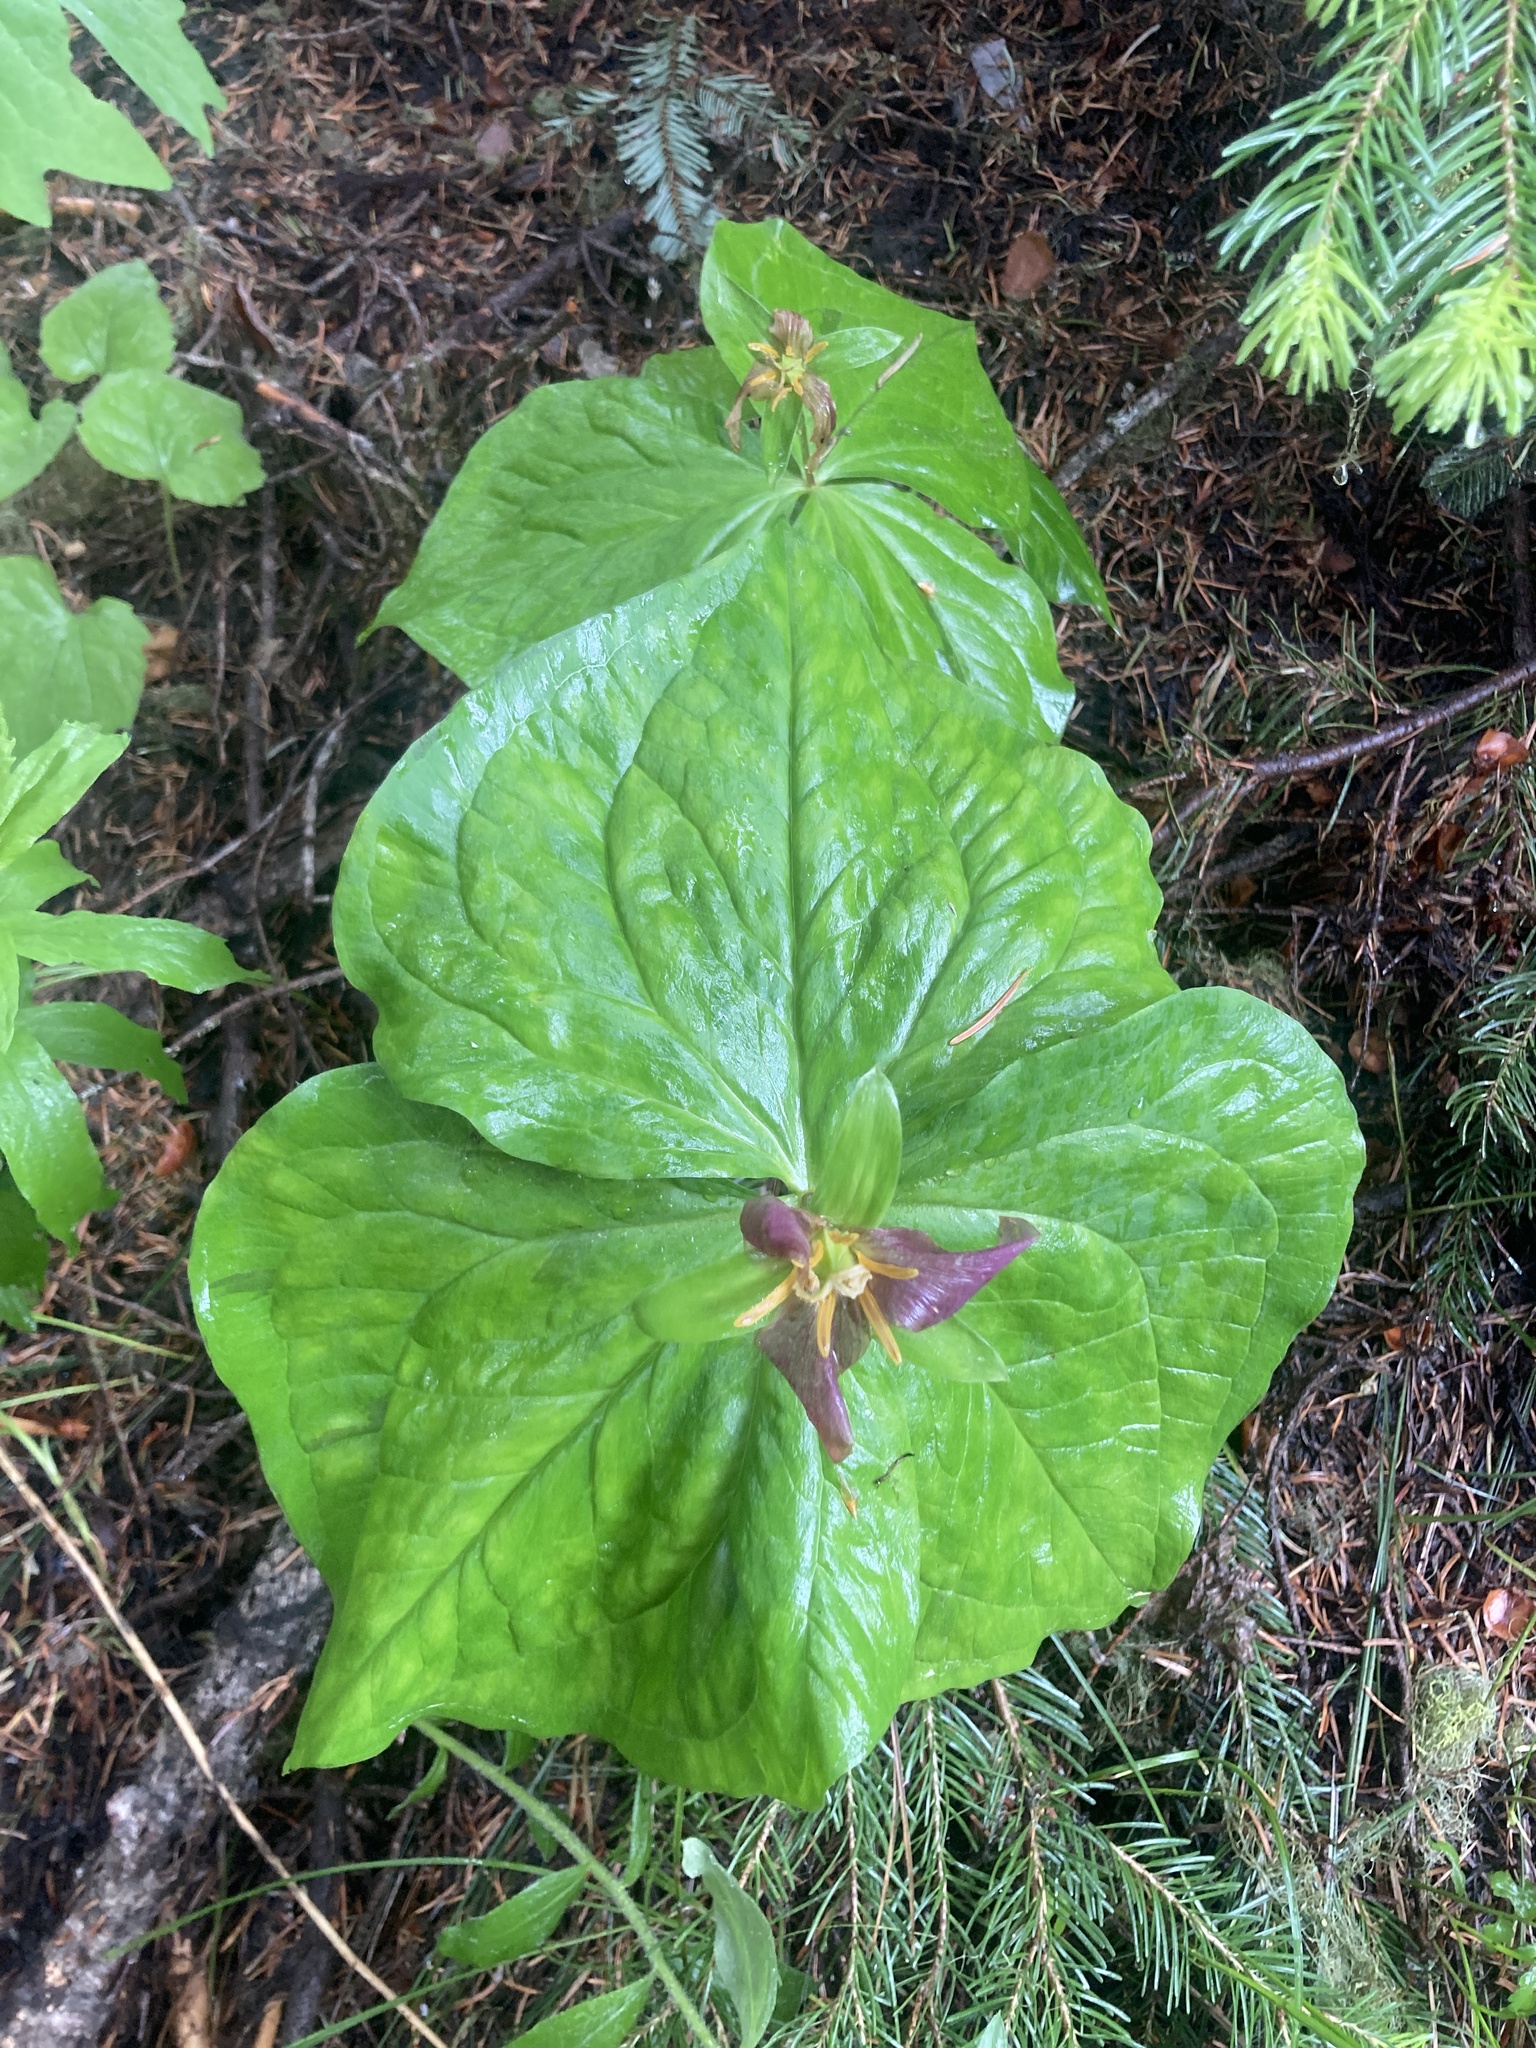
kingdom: Plantae
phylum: Tracheophyta
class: Liliopsida
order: Liliales
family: Melanthiaceae
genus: Trillium
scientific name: Trillium ovatum
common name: Pacific trillium
